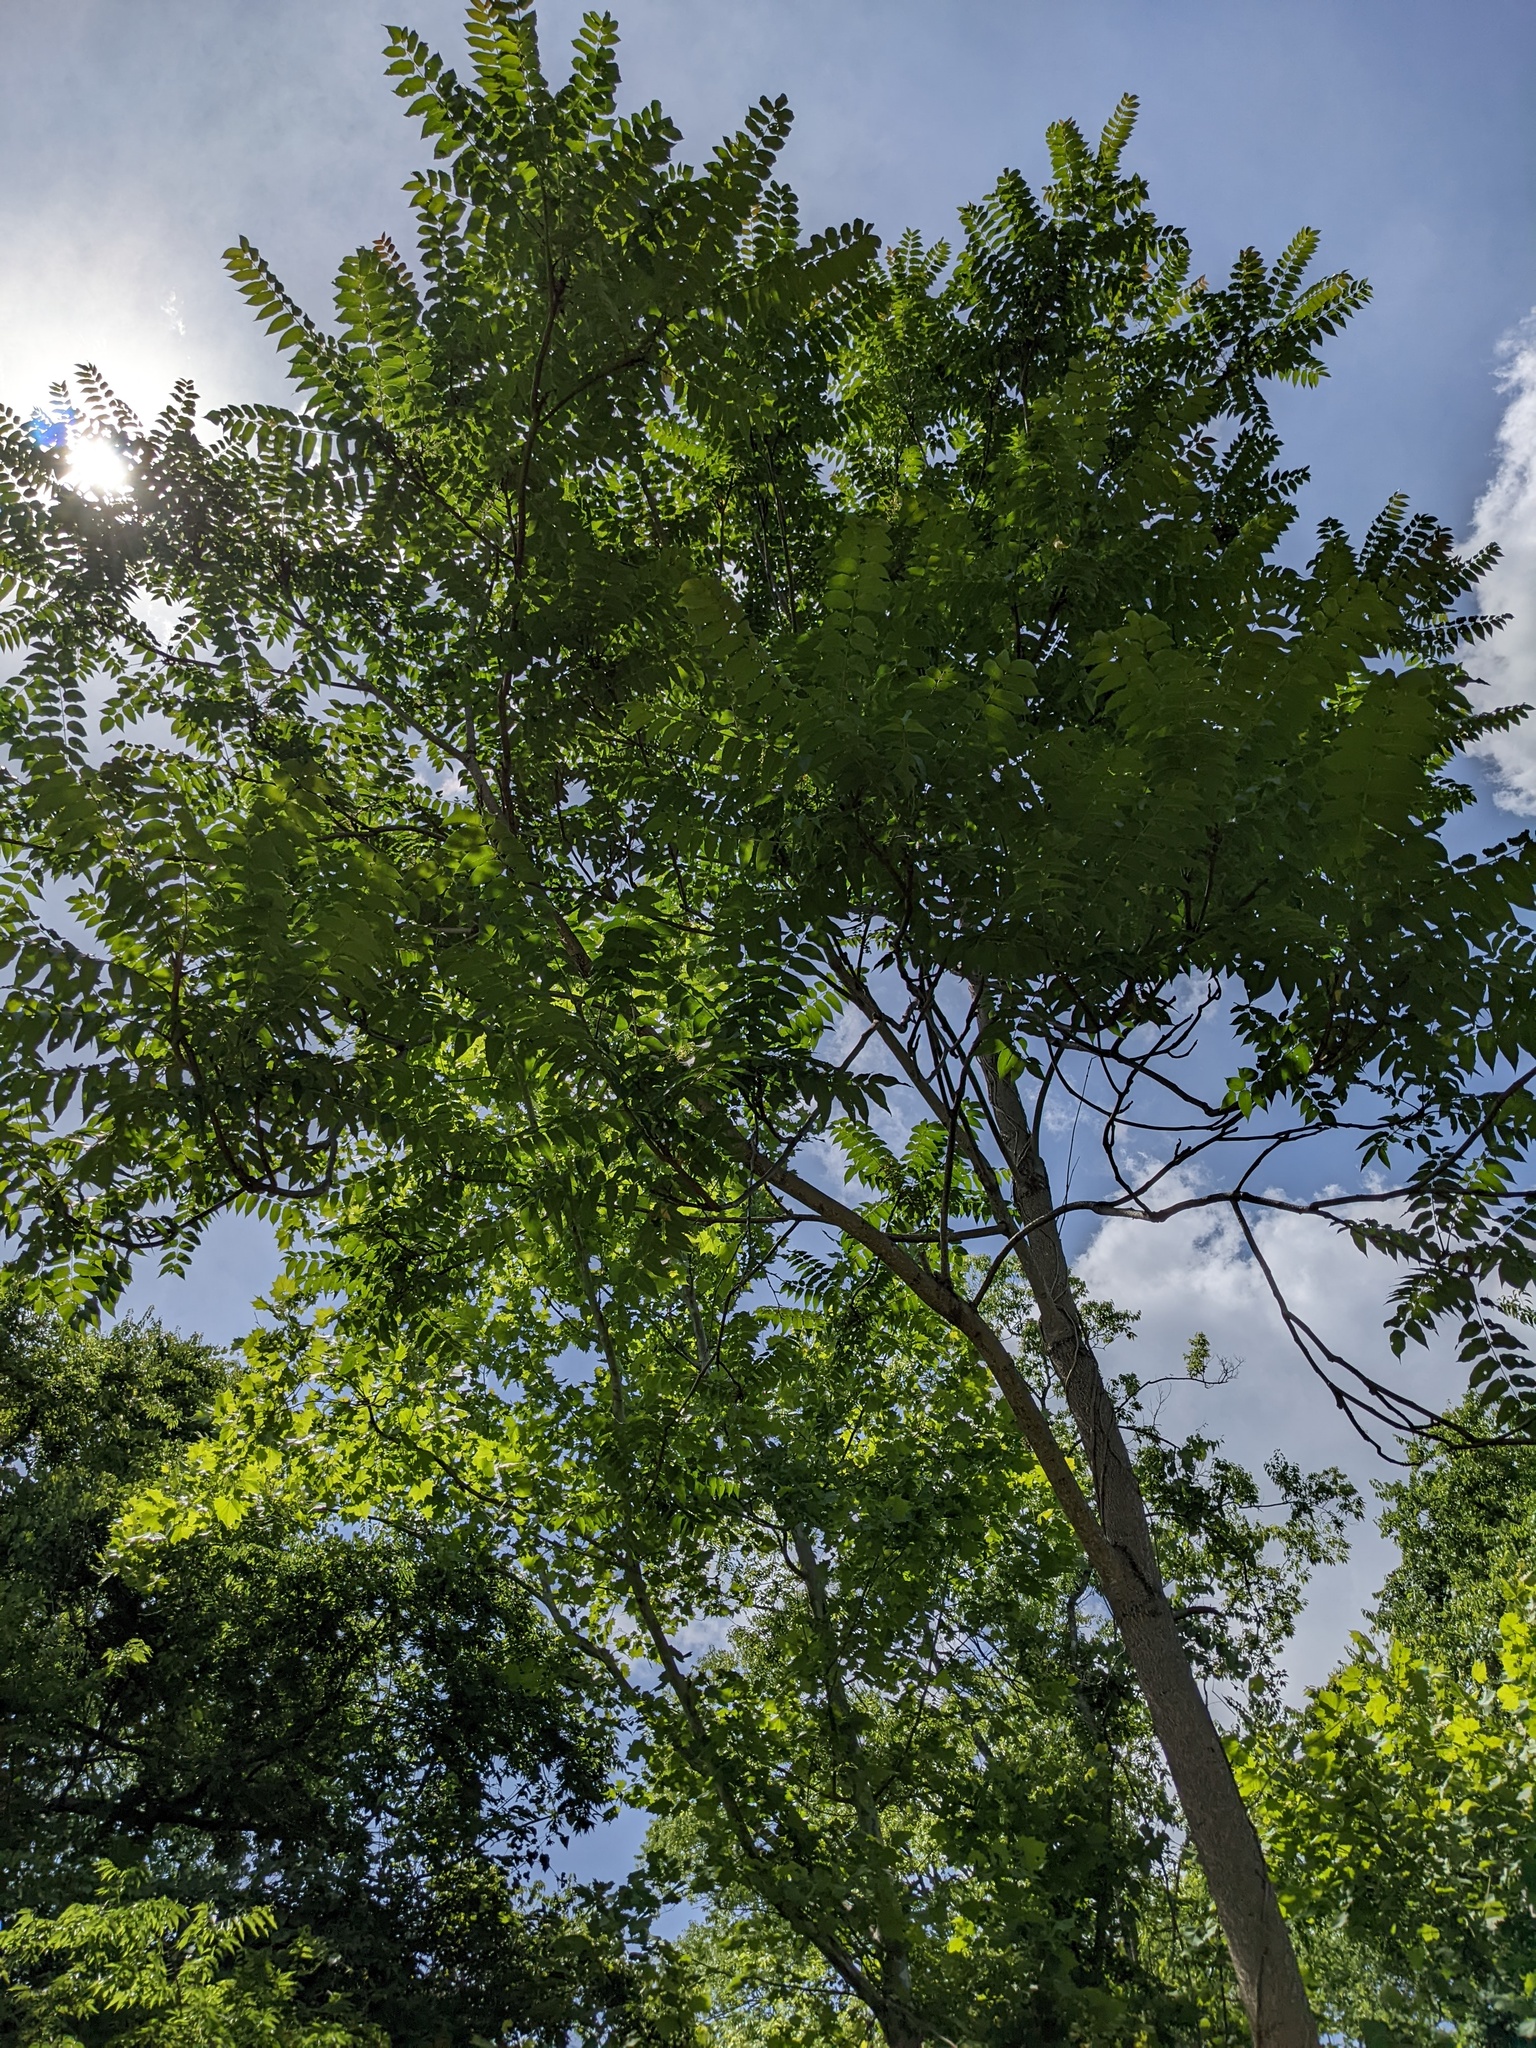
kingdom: Plantae
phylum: Tracheophyta
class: Magnoliopsida
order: Sapindales
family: Simaroubaceae
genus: Ailanthus
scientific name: Ailanthus altissima
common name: Tree-of-heaven
